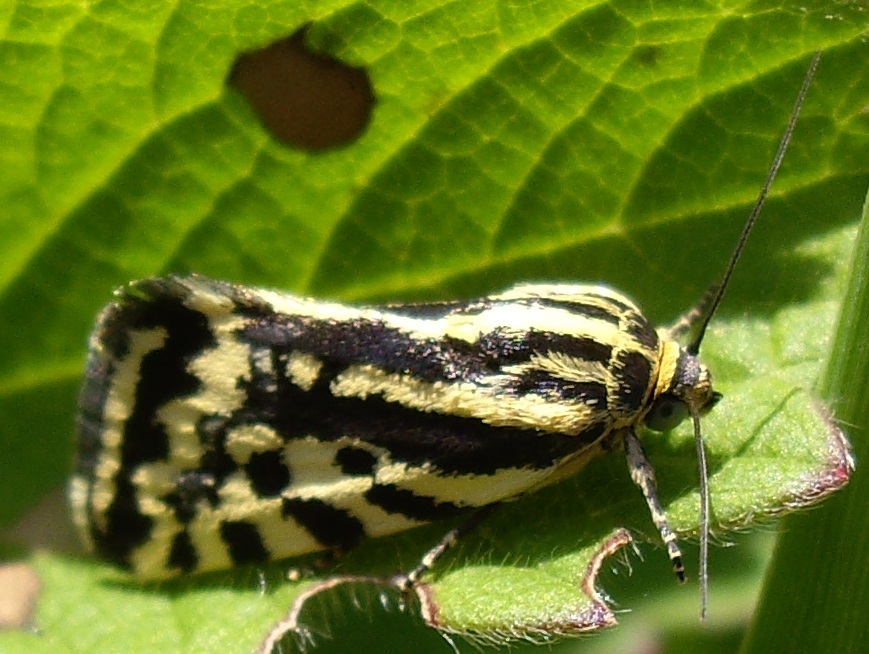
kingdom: Animalia
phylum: Arthropoda
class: Insecta
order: Lepidoptera
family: Noctuidae
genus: Acontia
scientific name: Acontia trabealis
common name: Spotted sulphur
